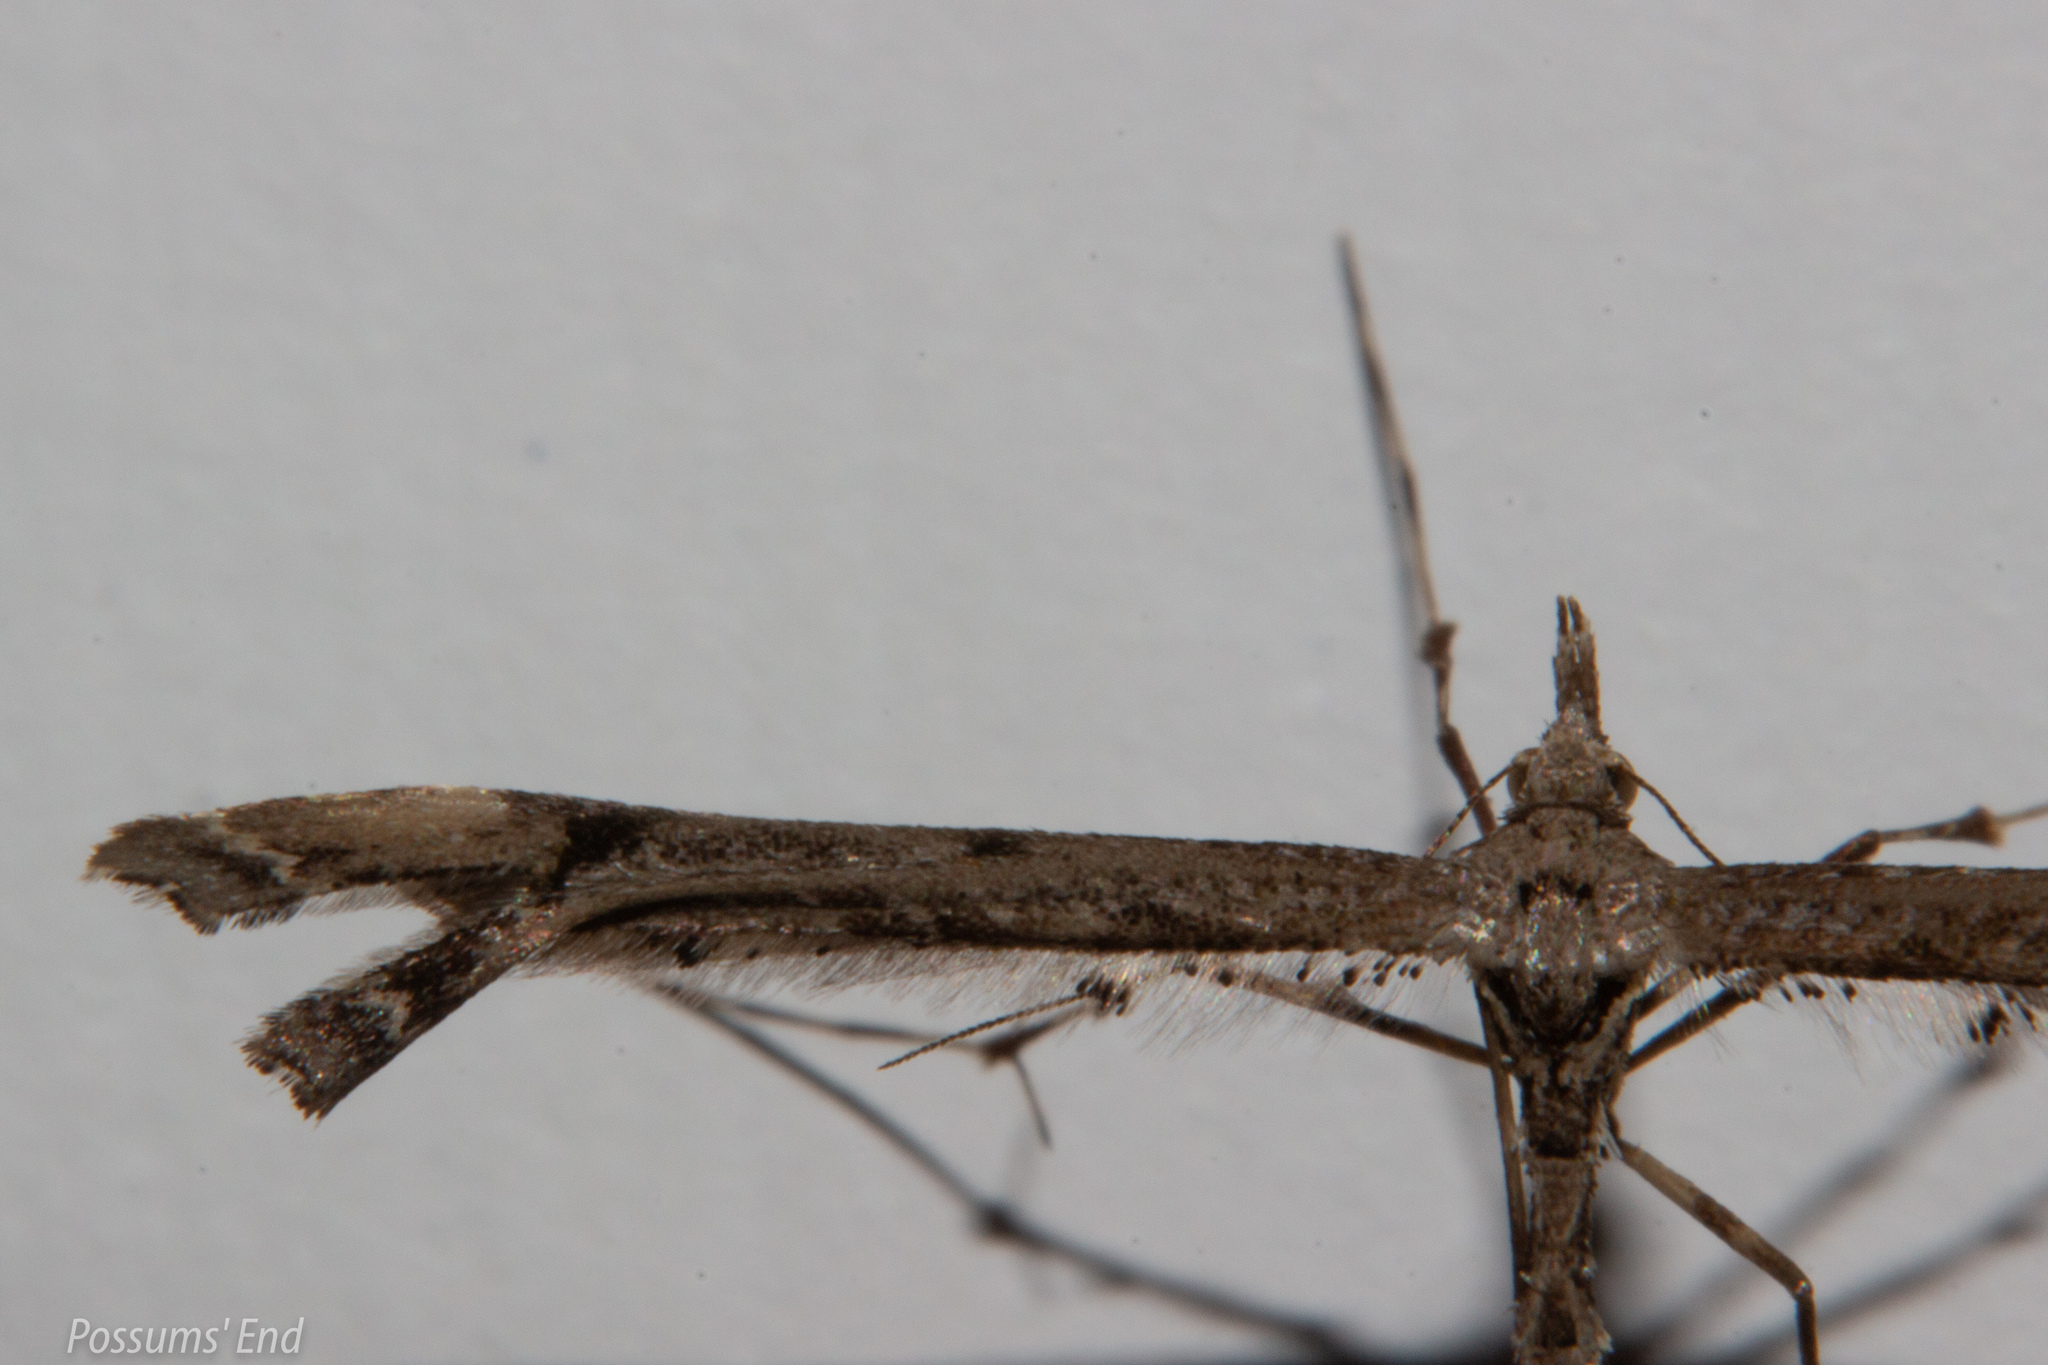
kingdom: Animalia
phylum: Arthropoda
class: Insecta
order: Lepidoptera
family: Pterophoridae
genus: Amblyptilia
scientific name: Amblyptilia repletalis
